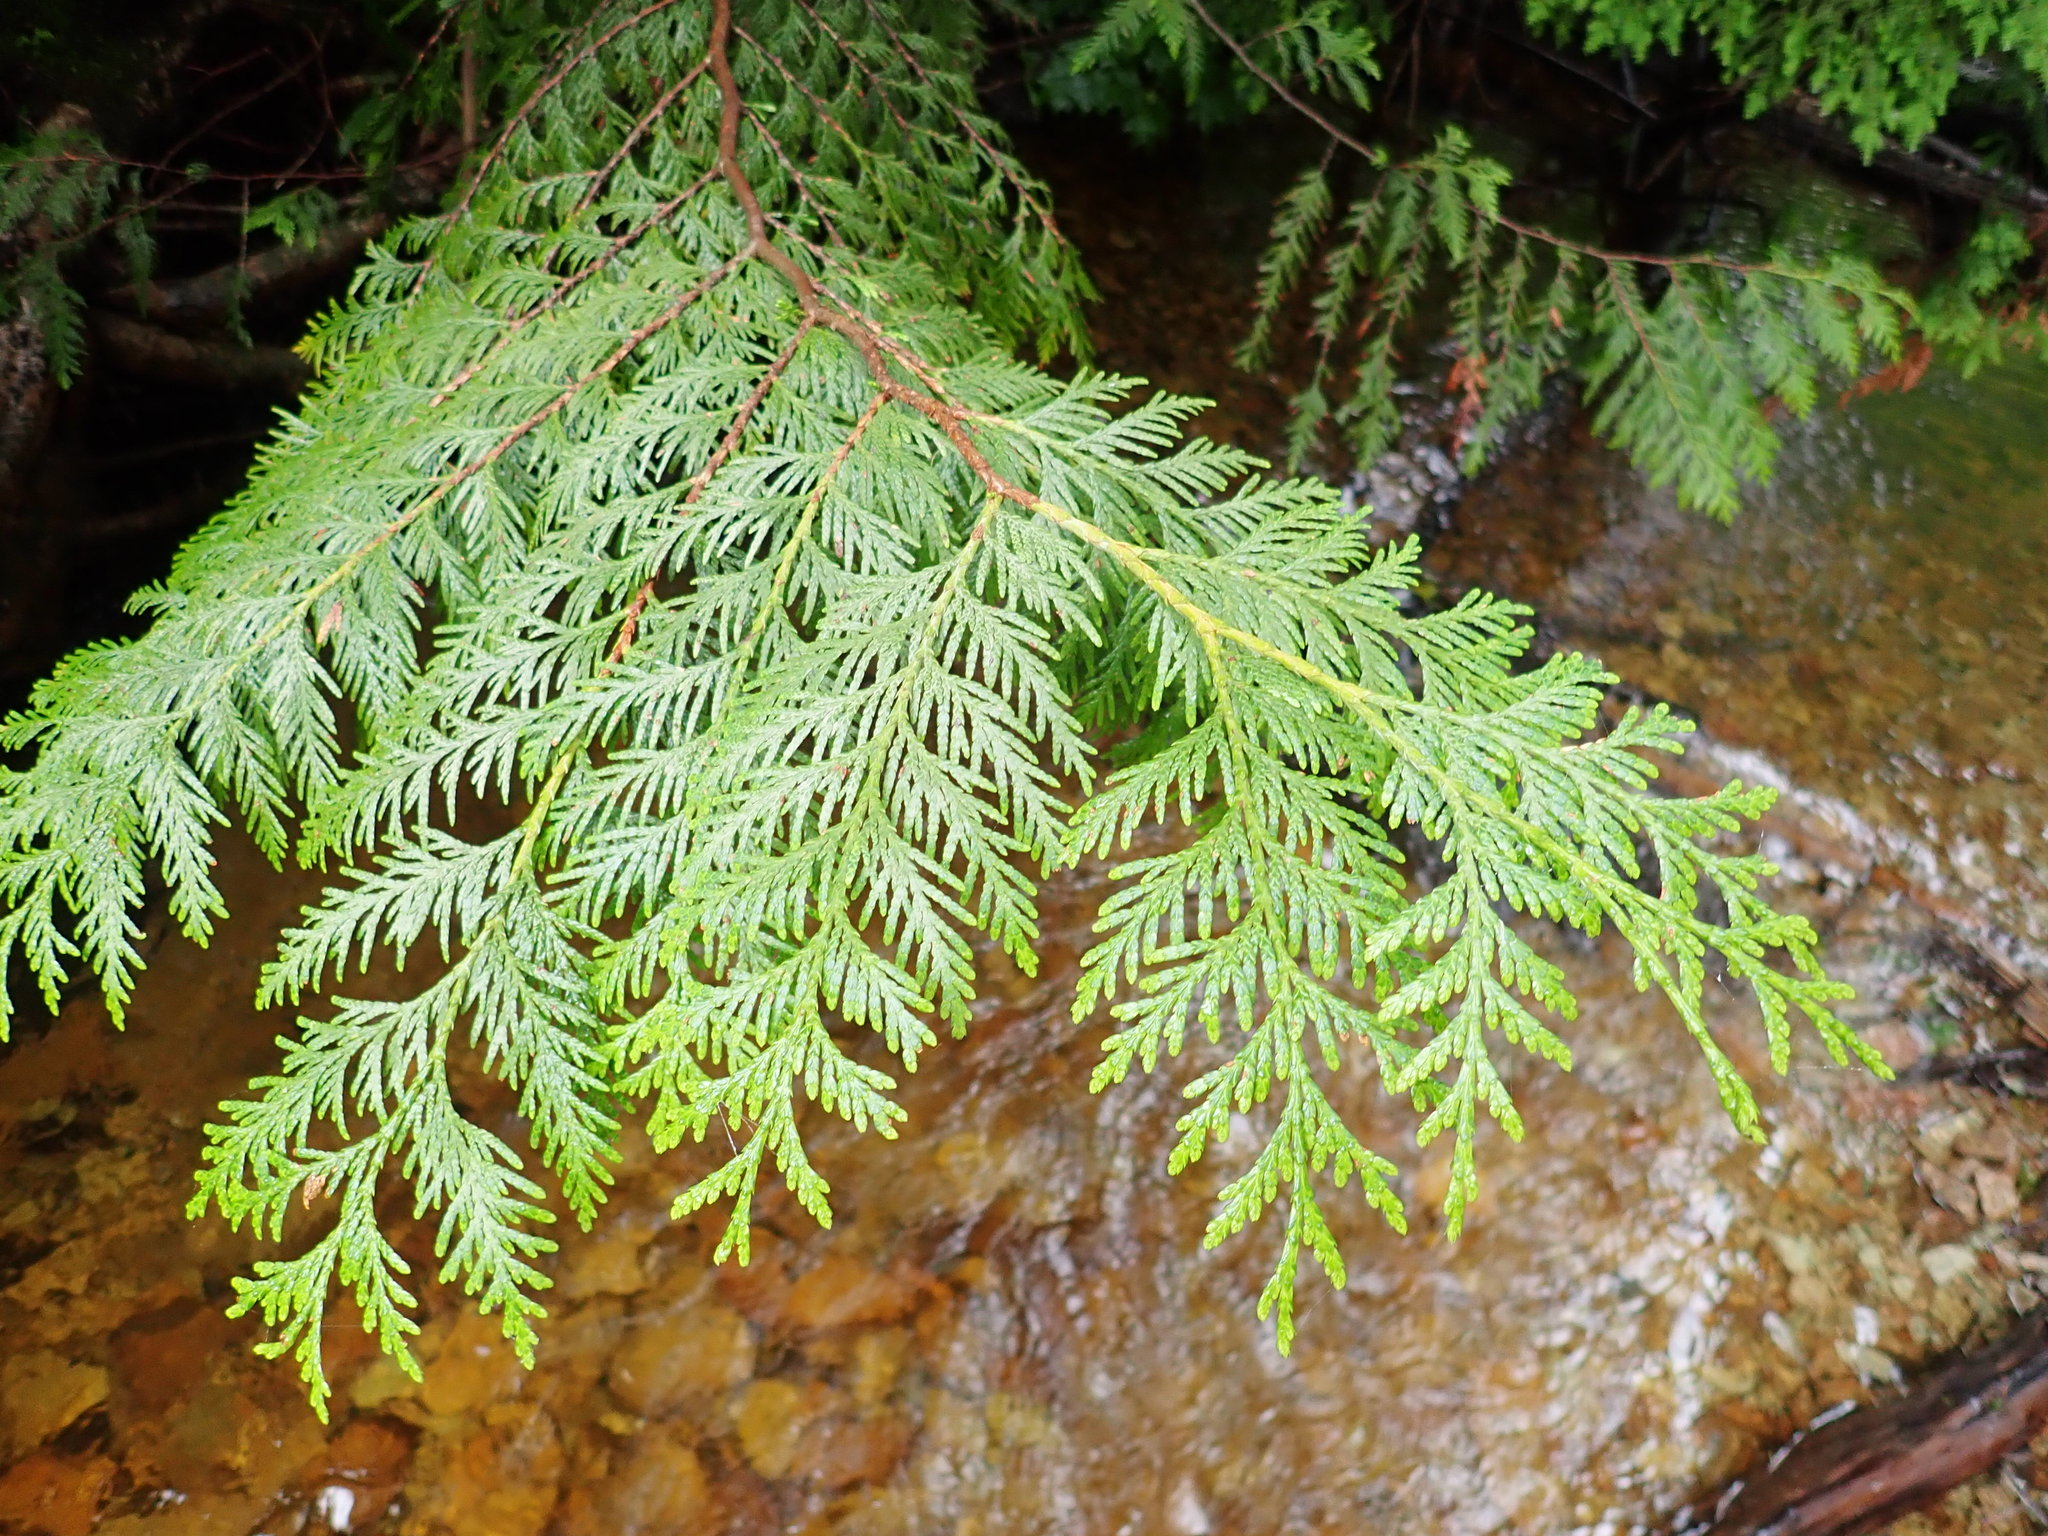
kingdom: Plantae
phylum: Tracheophyta
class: Pinopsida
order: Pinales
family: Cupressaceae
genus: Thuja
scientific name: Thuja plicata
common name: Western red-cedar
